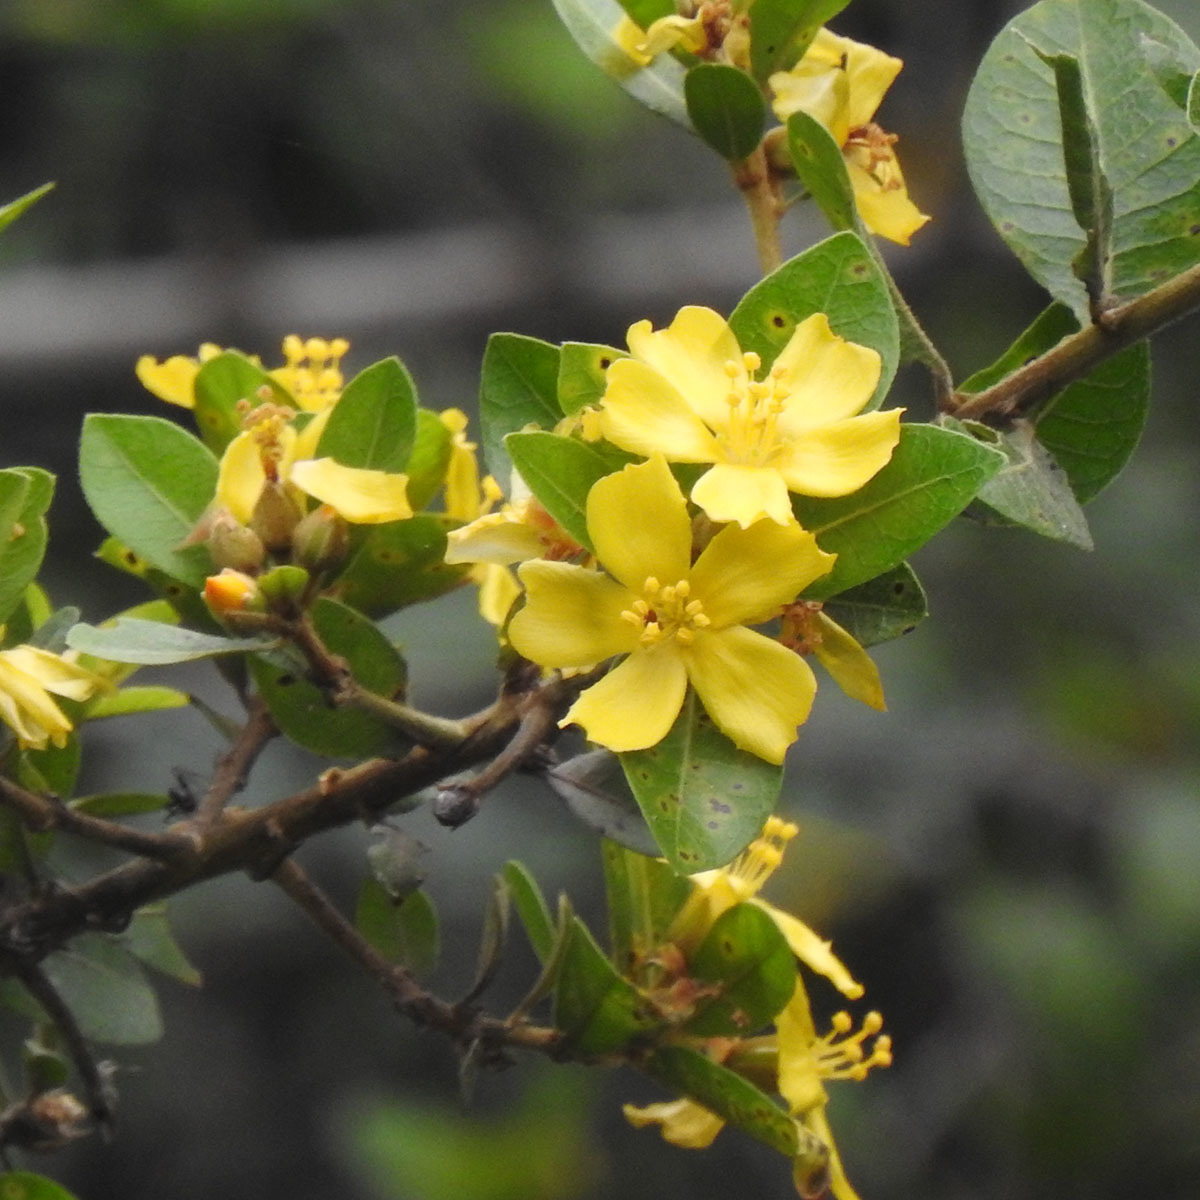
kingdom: Plantae
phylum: Tracheophyta
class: Magnoliopsida
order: Malpighiales
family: Linaceae
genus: Hugonia
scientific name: Hugonia mystax
